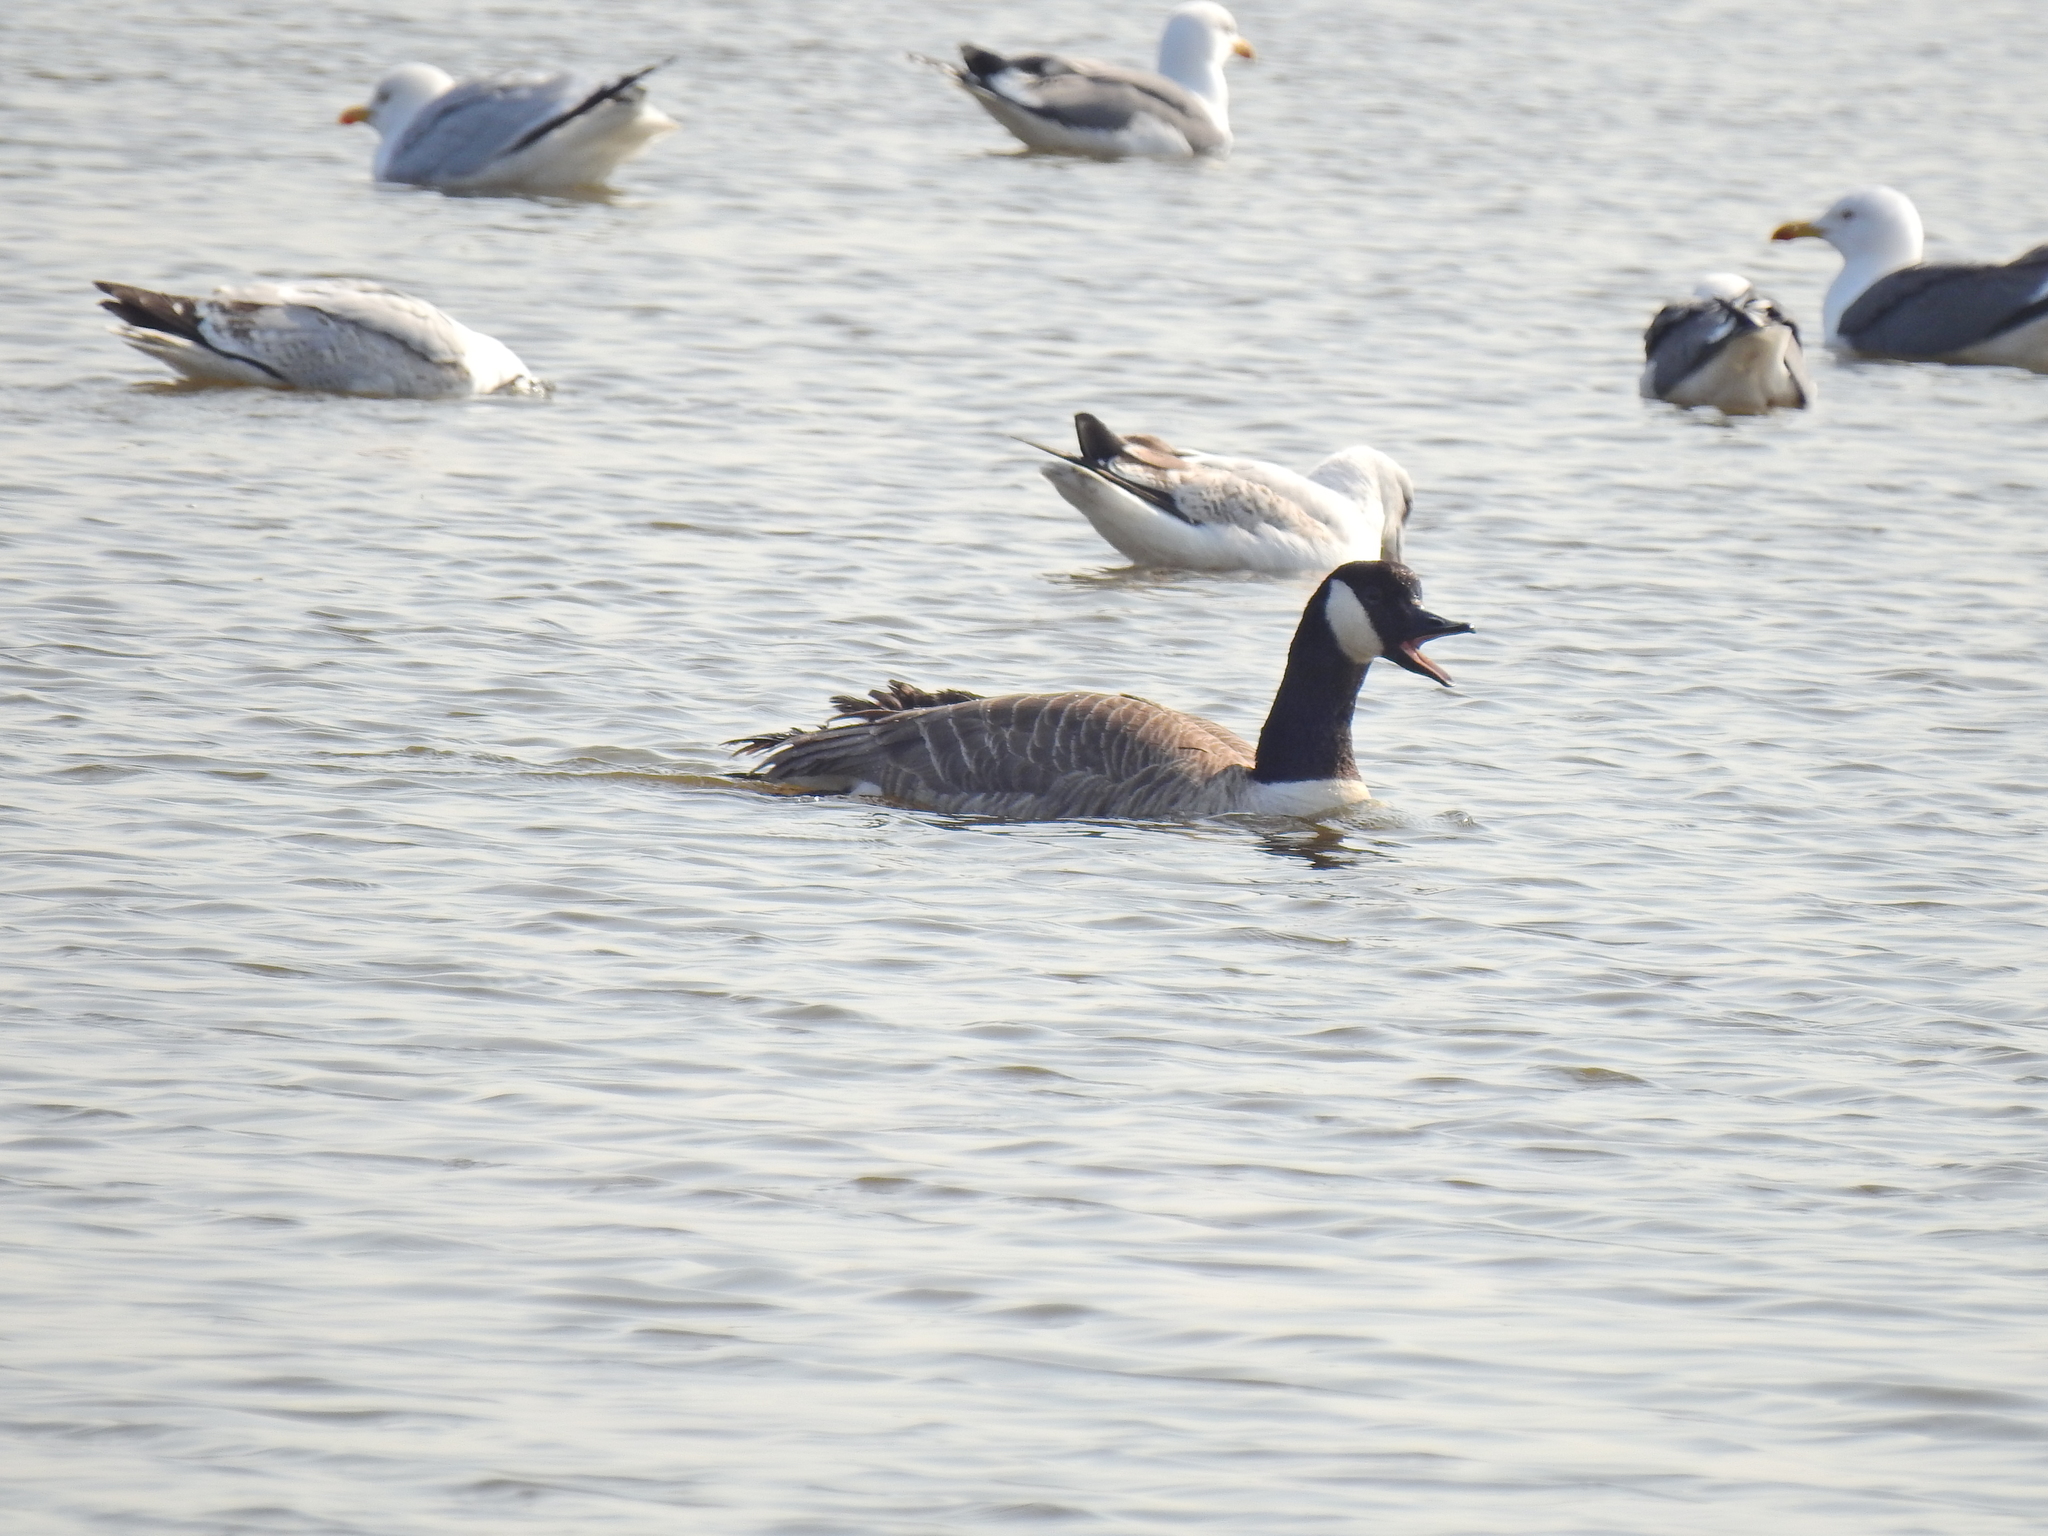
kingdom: Animalia
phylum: Chordata
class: Aves
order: Anseriformes
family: Anatidae
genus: Branta
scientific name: Branta canadensis
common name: Canada goose
